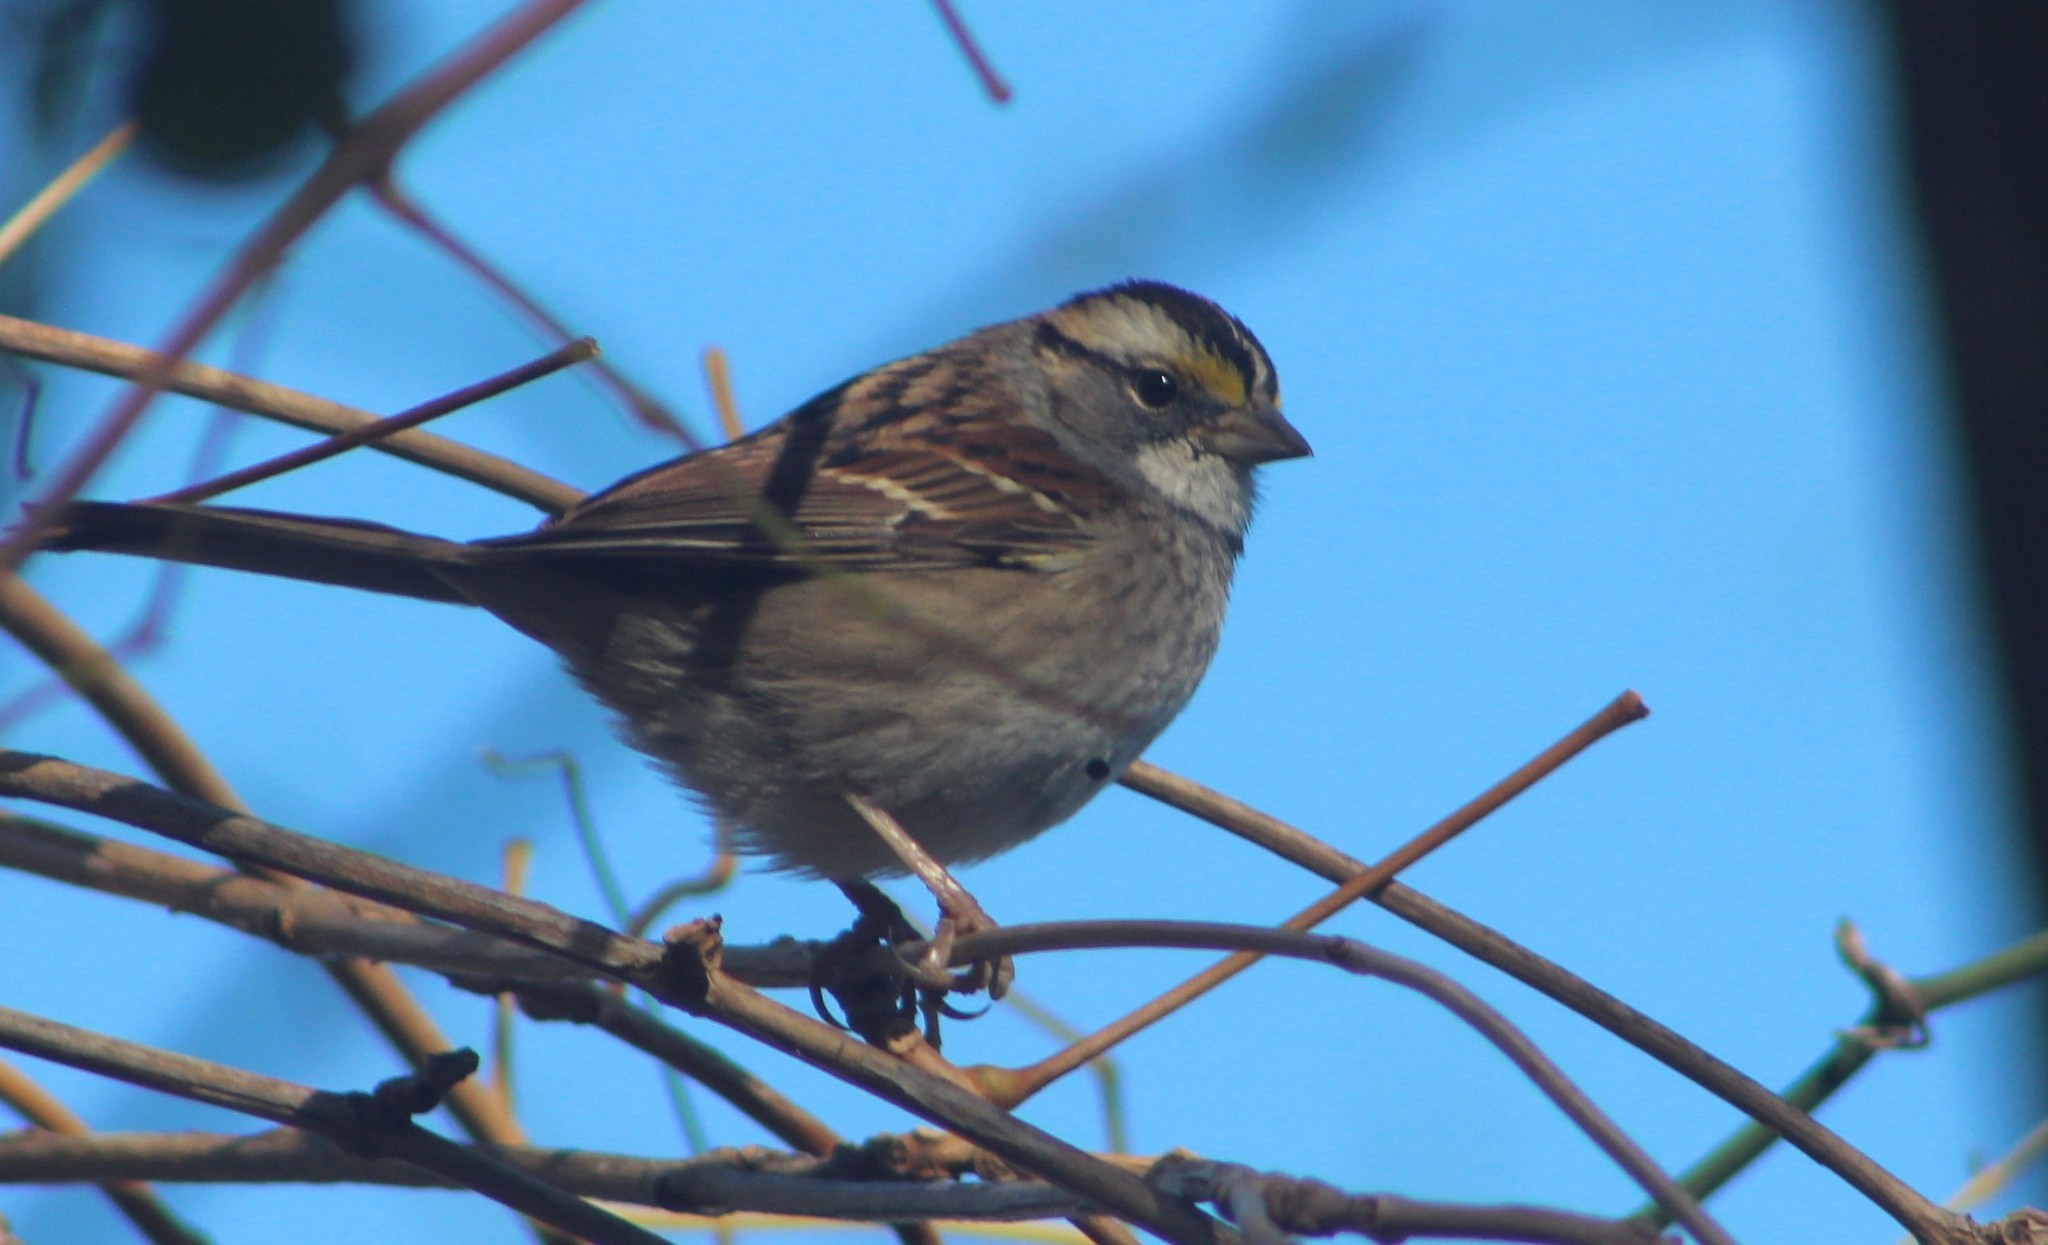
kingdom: Animalia
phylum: Chordata
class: Aves
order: Passeriformes
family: Passerellidae
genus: Zonotrichia
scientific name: Zonotrichia albicollis
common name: White-throated sparrow
